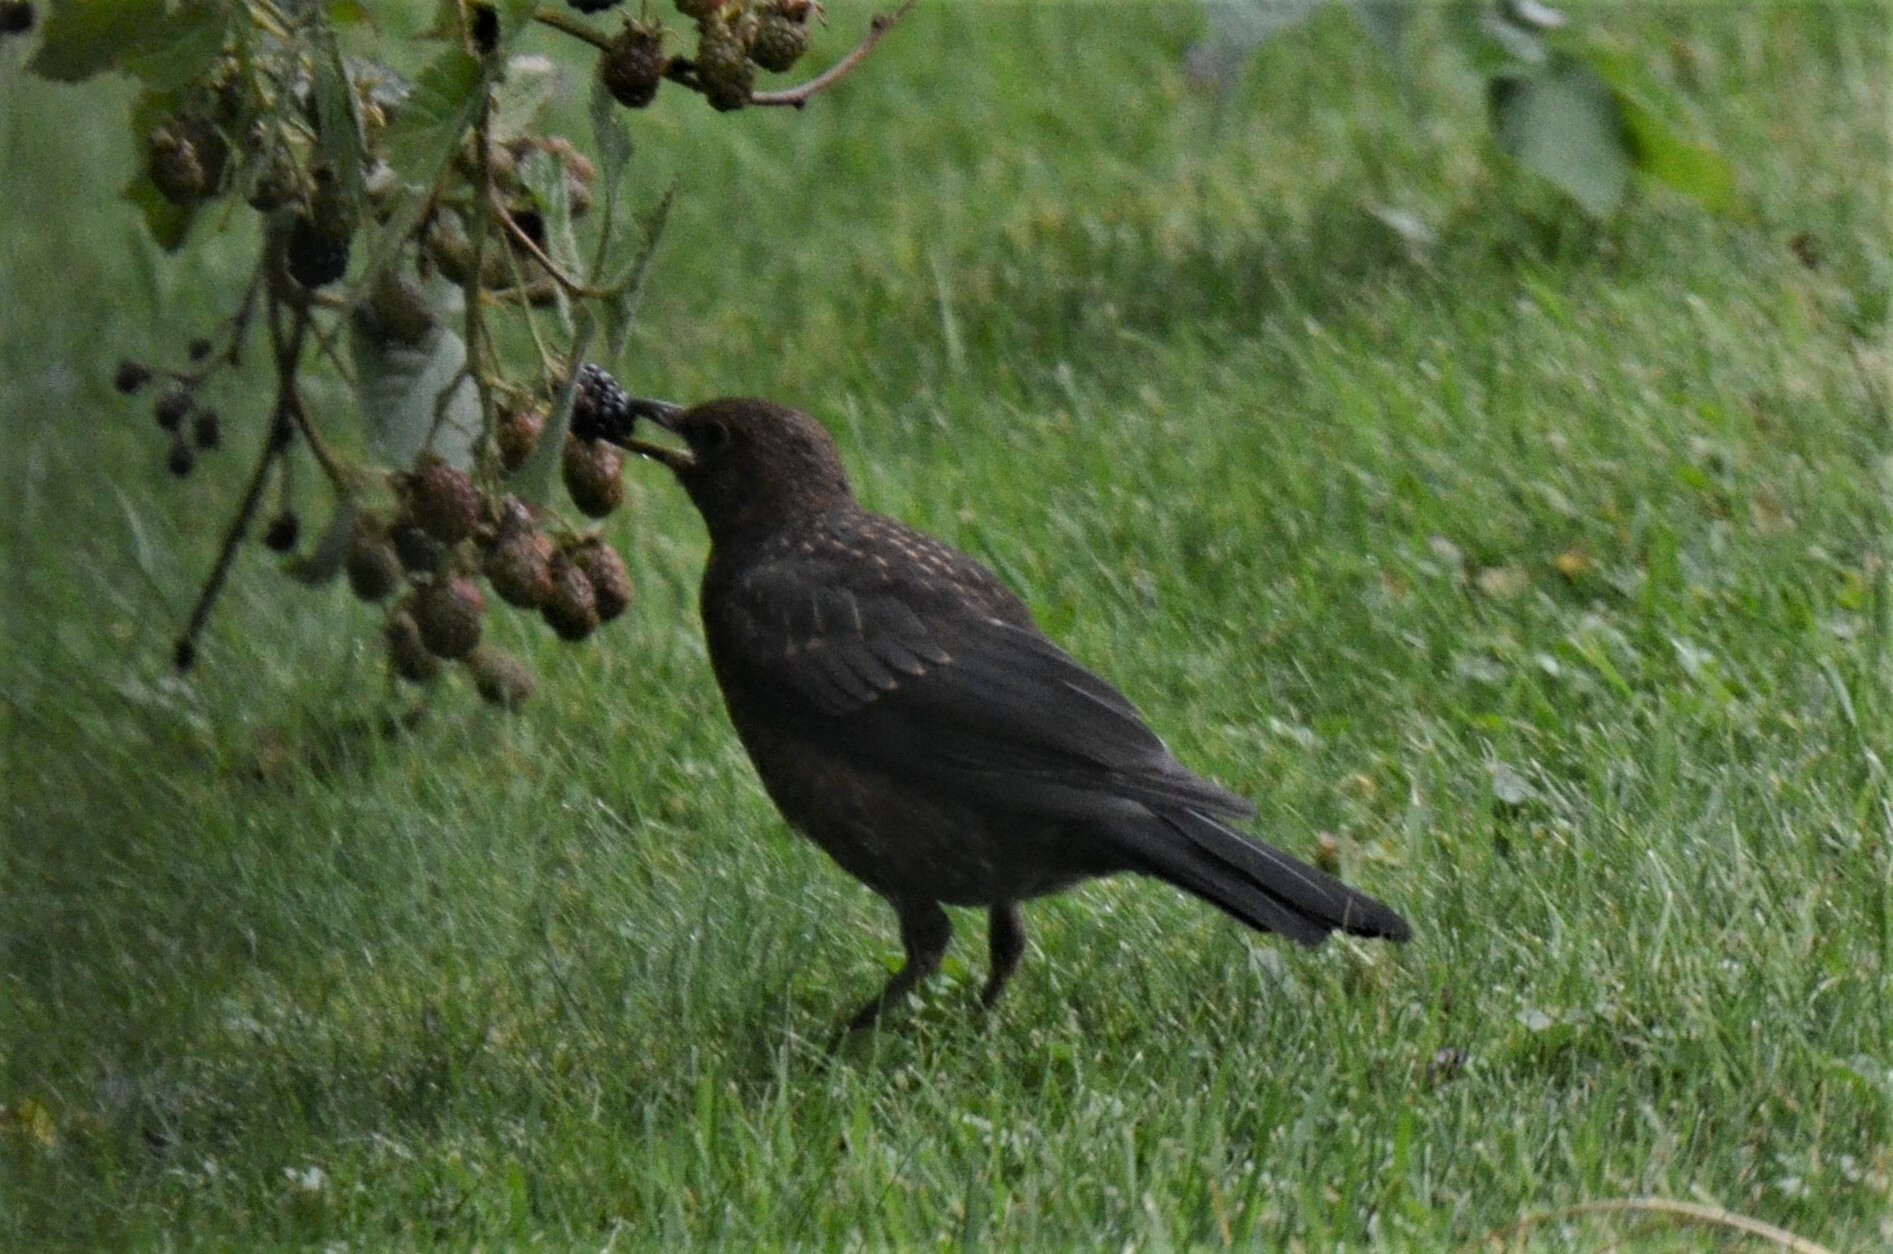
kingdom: Animalia
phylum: Chordata
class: Aves
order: Passeriformes
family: Turdidae
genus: Turdus
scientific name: Turdus merula
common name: Common blackbird
